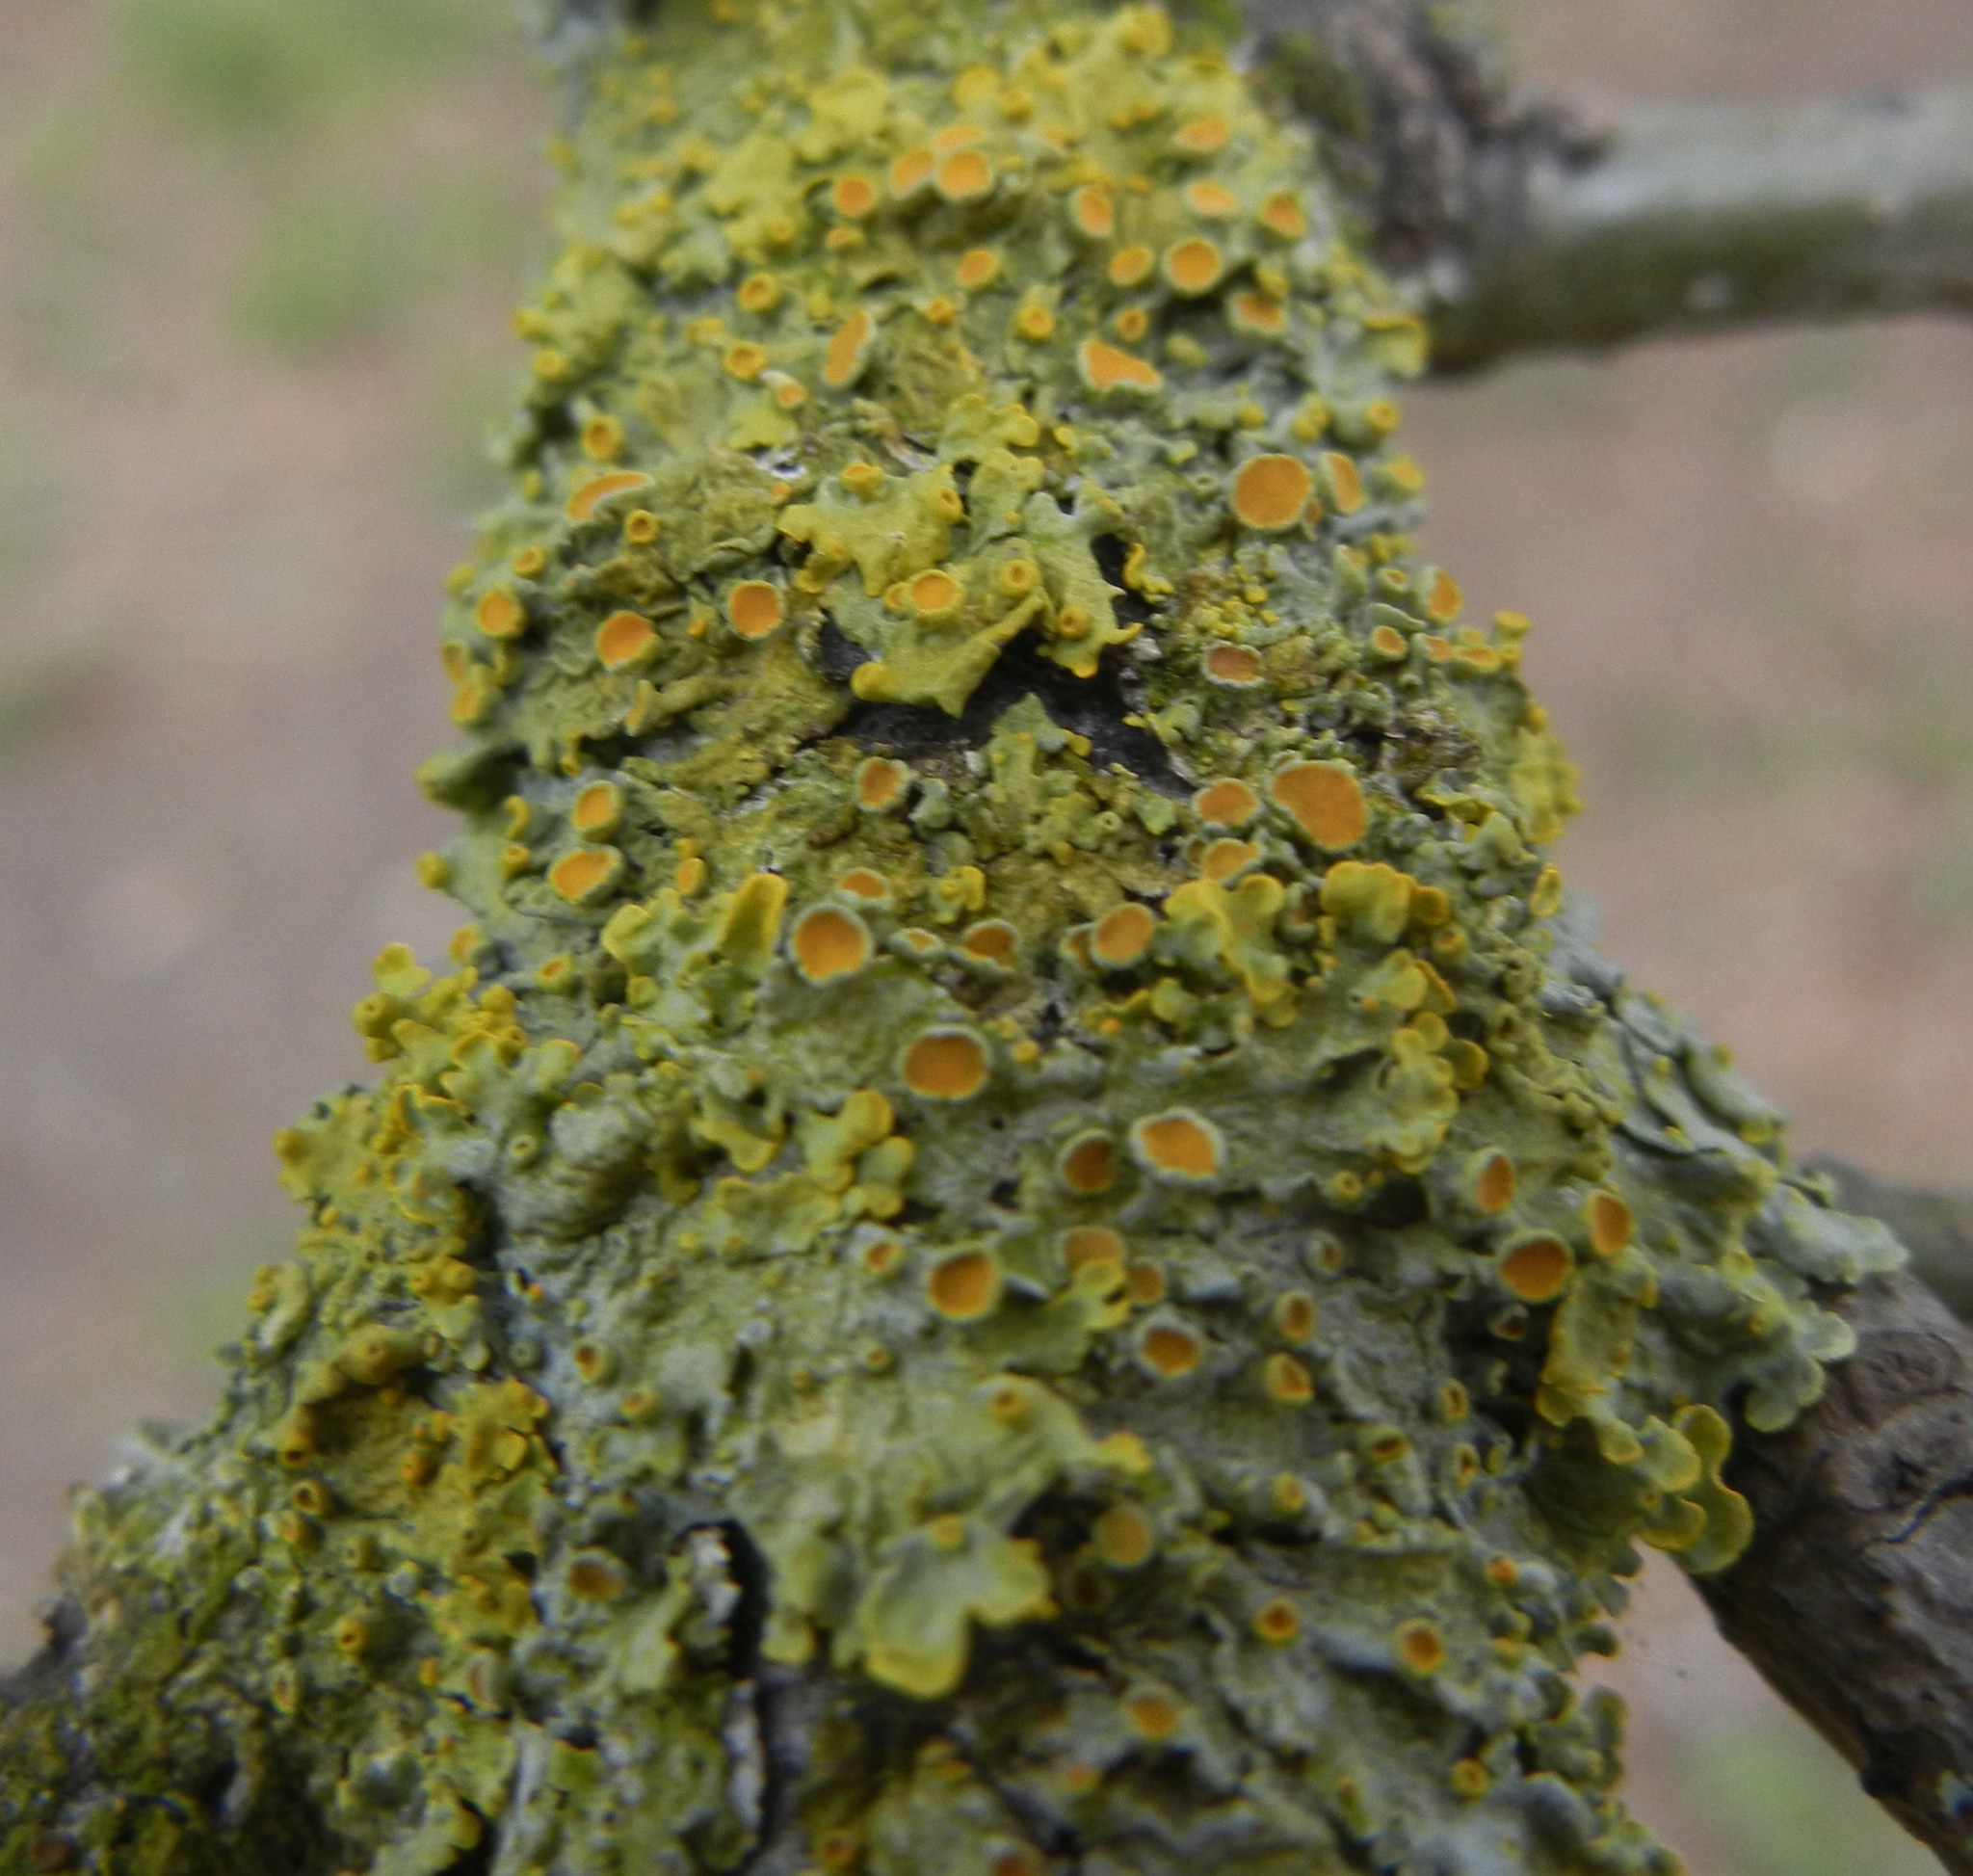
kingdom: Fungi
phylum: Ascomycota
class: Lecanoromycetes
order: Teloschistales
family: Teloschistaceae
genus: Xanthoria
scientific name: Xanthoria parietina
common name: Common orange lichen
